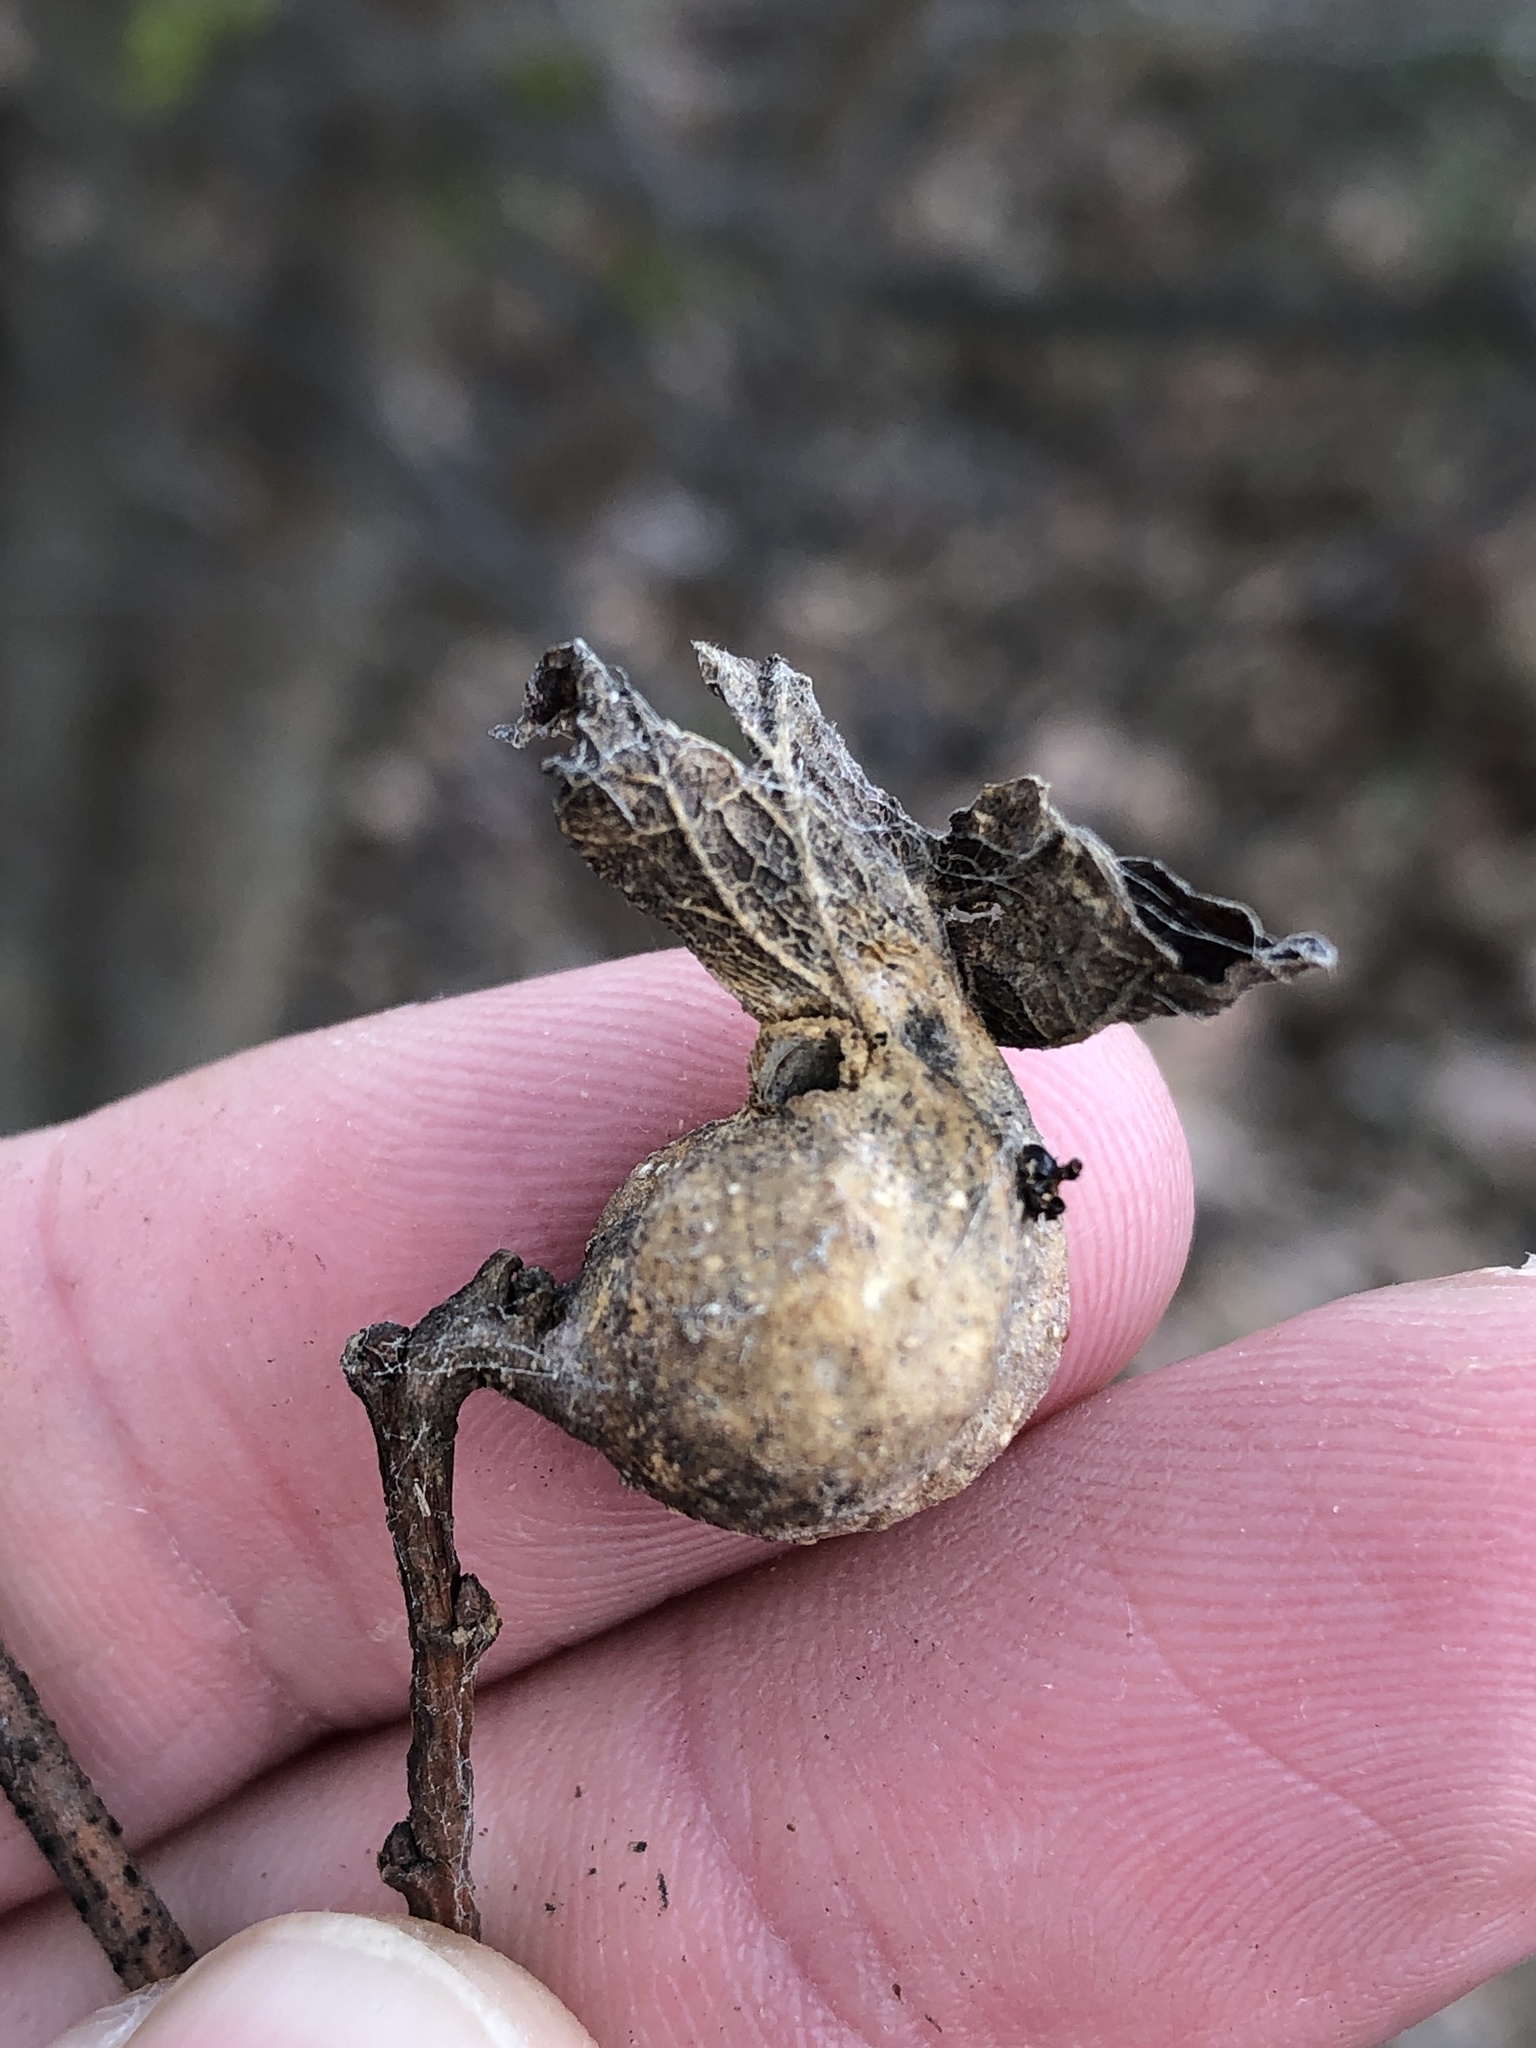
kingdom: Animalia
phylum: Arthropoda
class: Insecta
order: Hemiptera
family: Aphalaridae
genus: Pachypsylla
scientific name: Pachypsylla venusta
